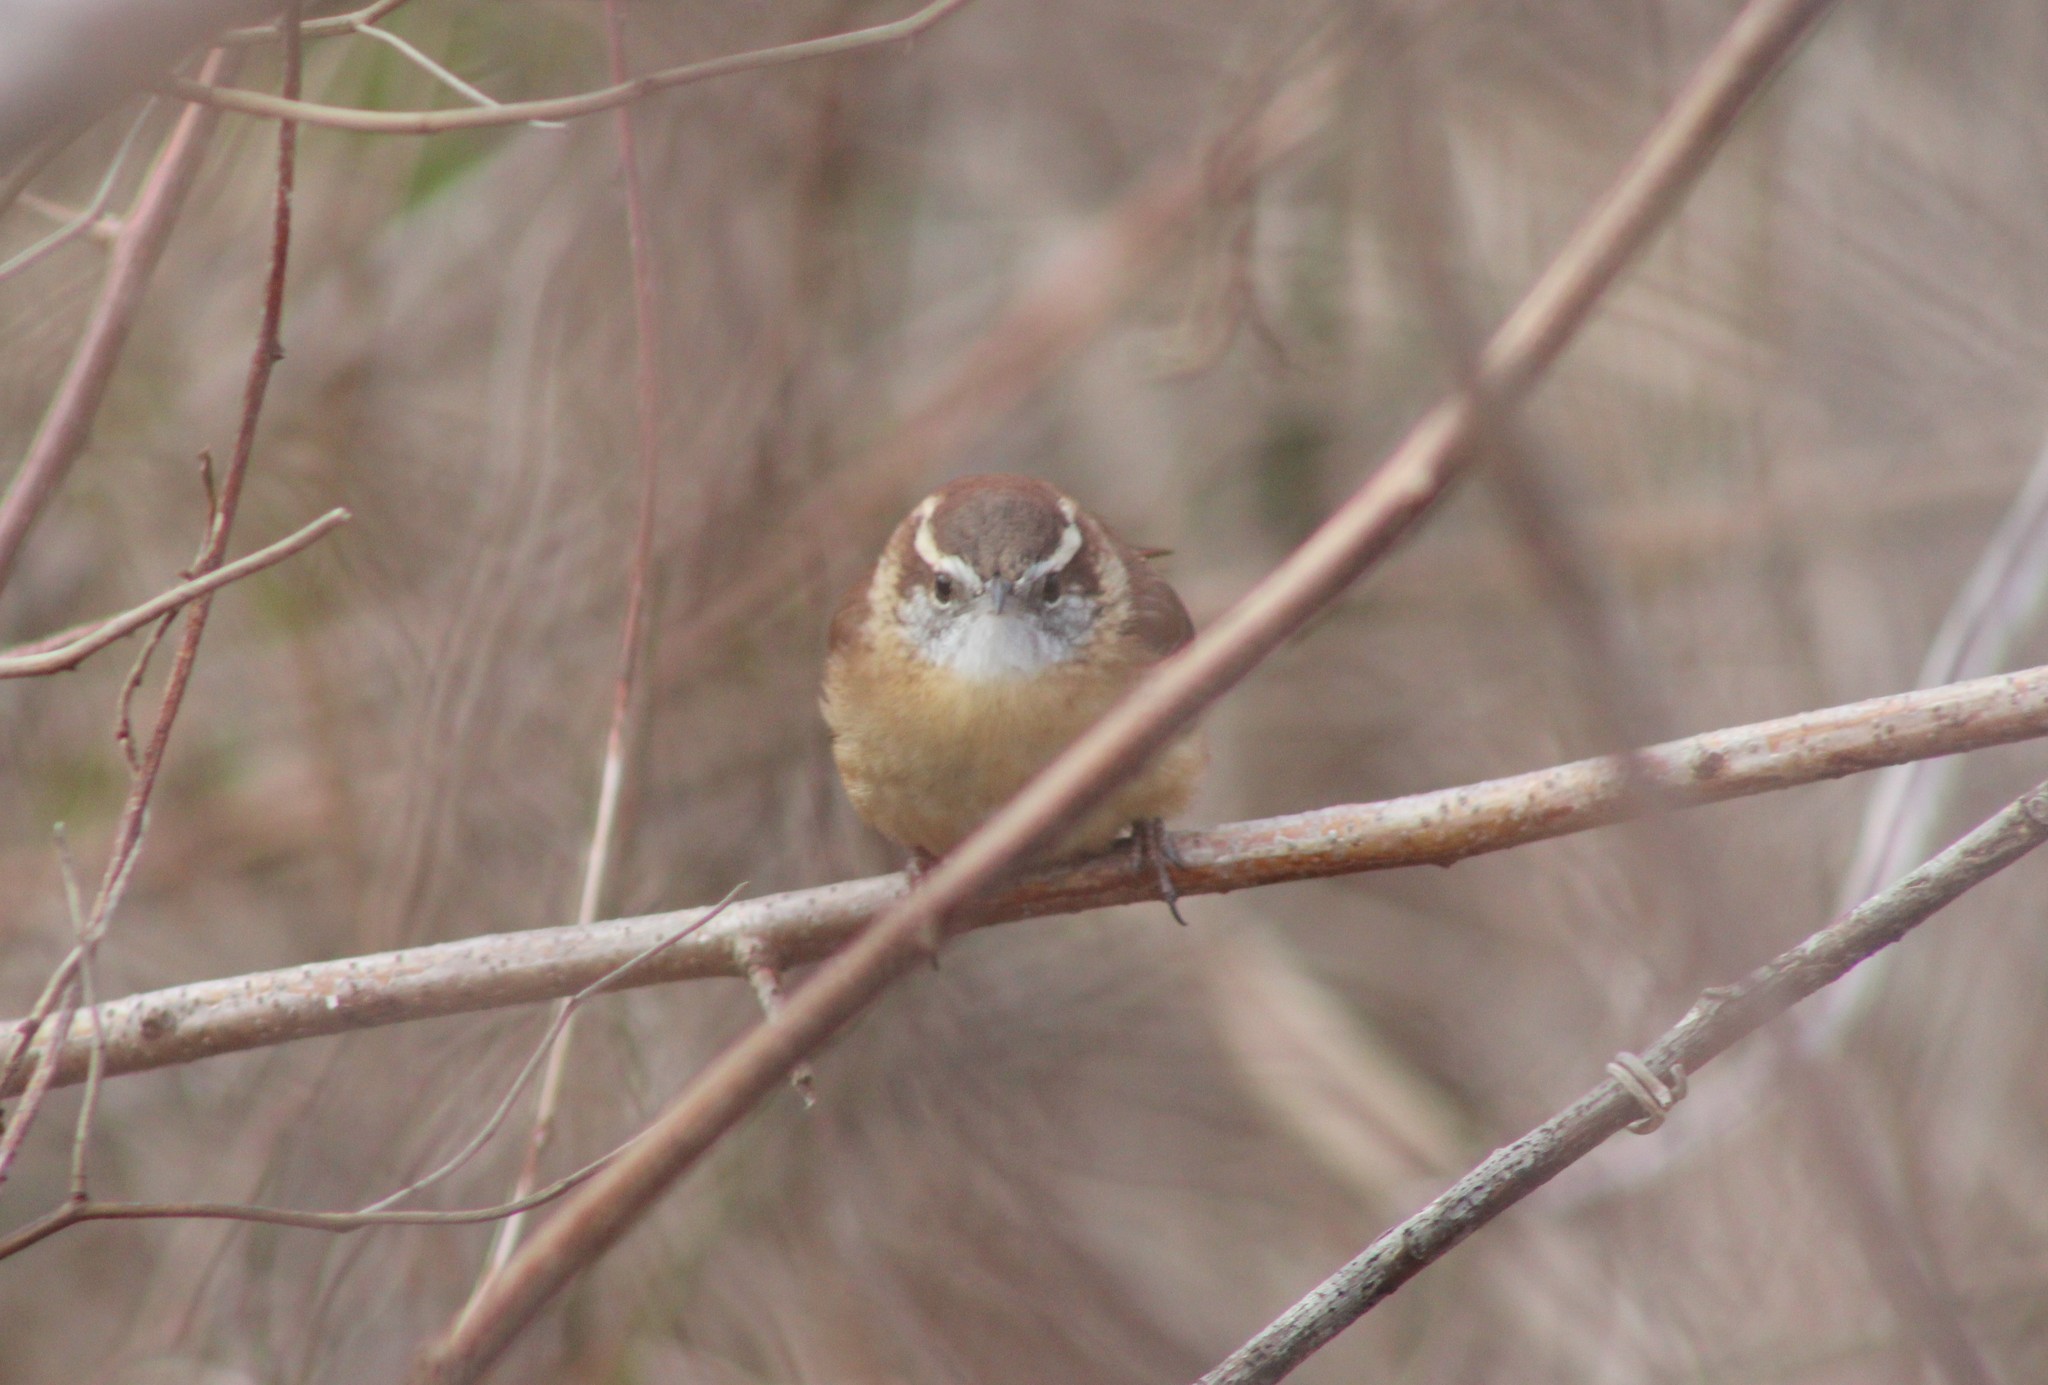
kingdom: Animalia
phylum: Chordata
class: Aves
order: Passeriformes
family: Troglodytidae
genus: Thryothorus
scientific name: Thryothorus ludovicianus
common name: Carolina wren
